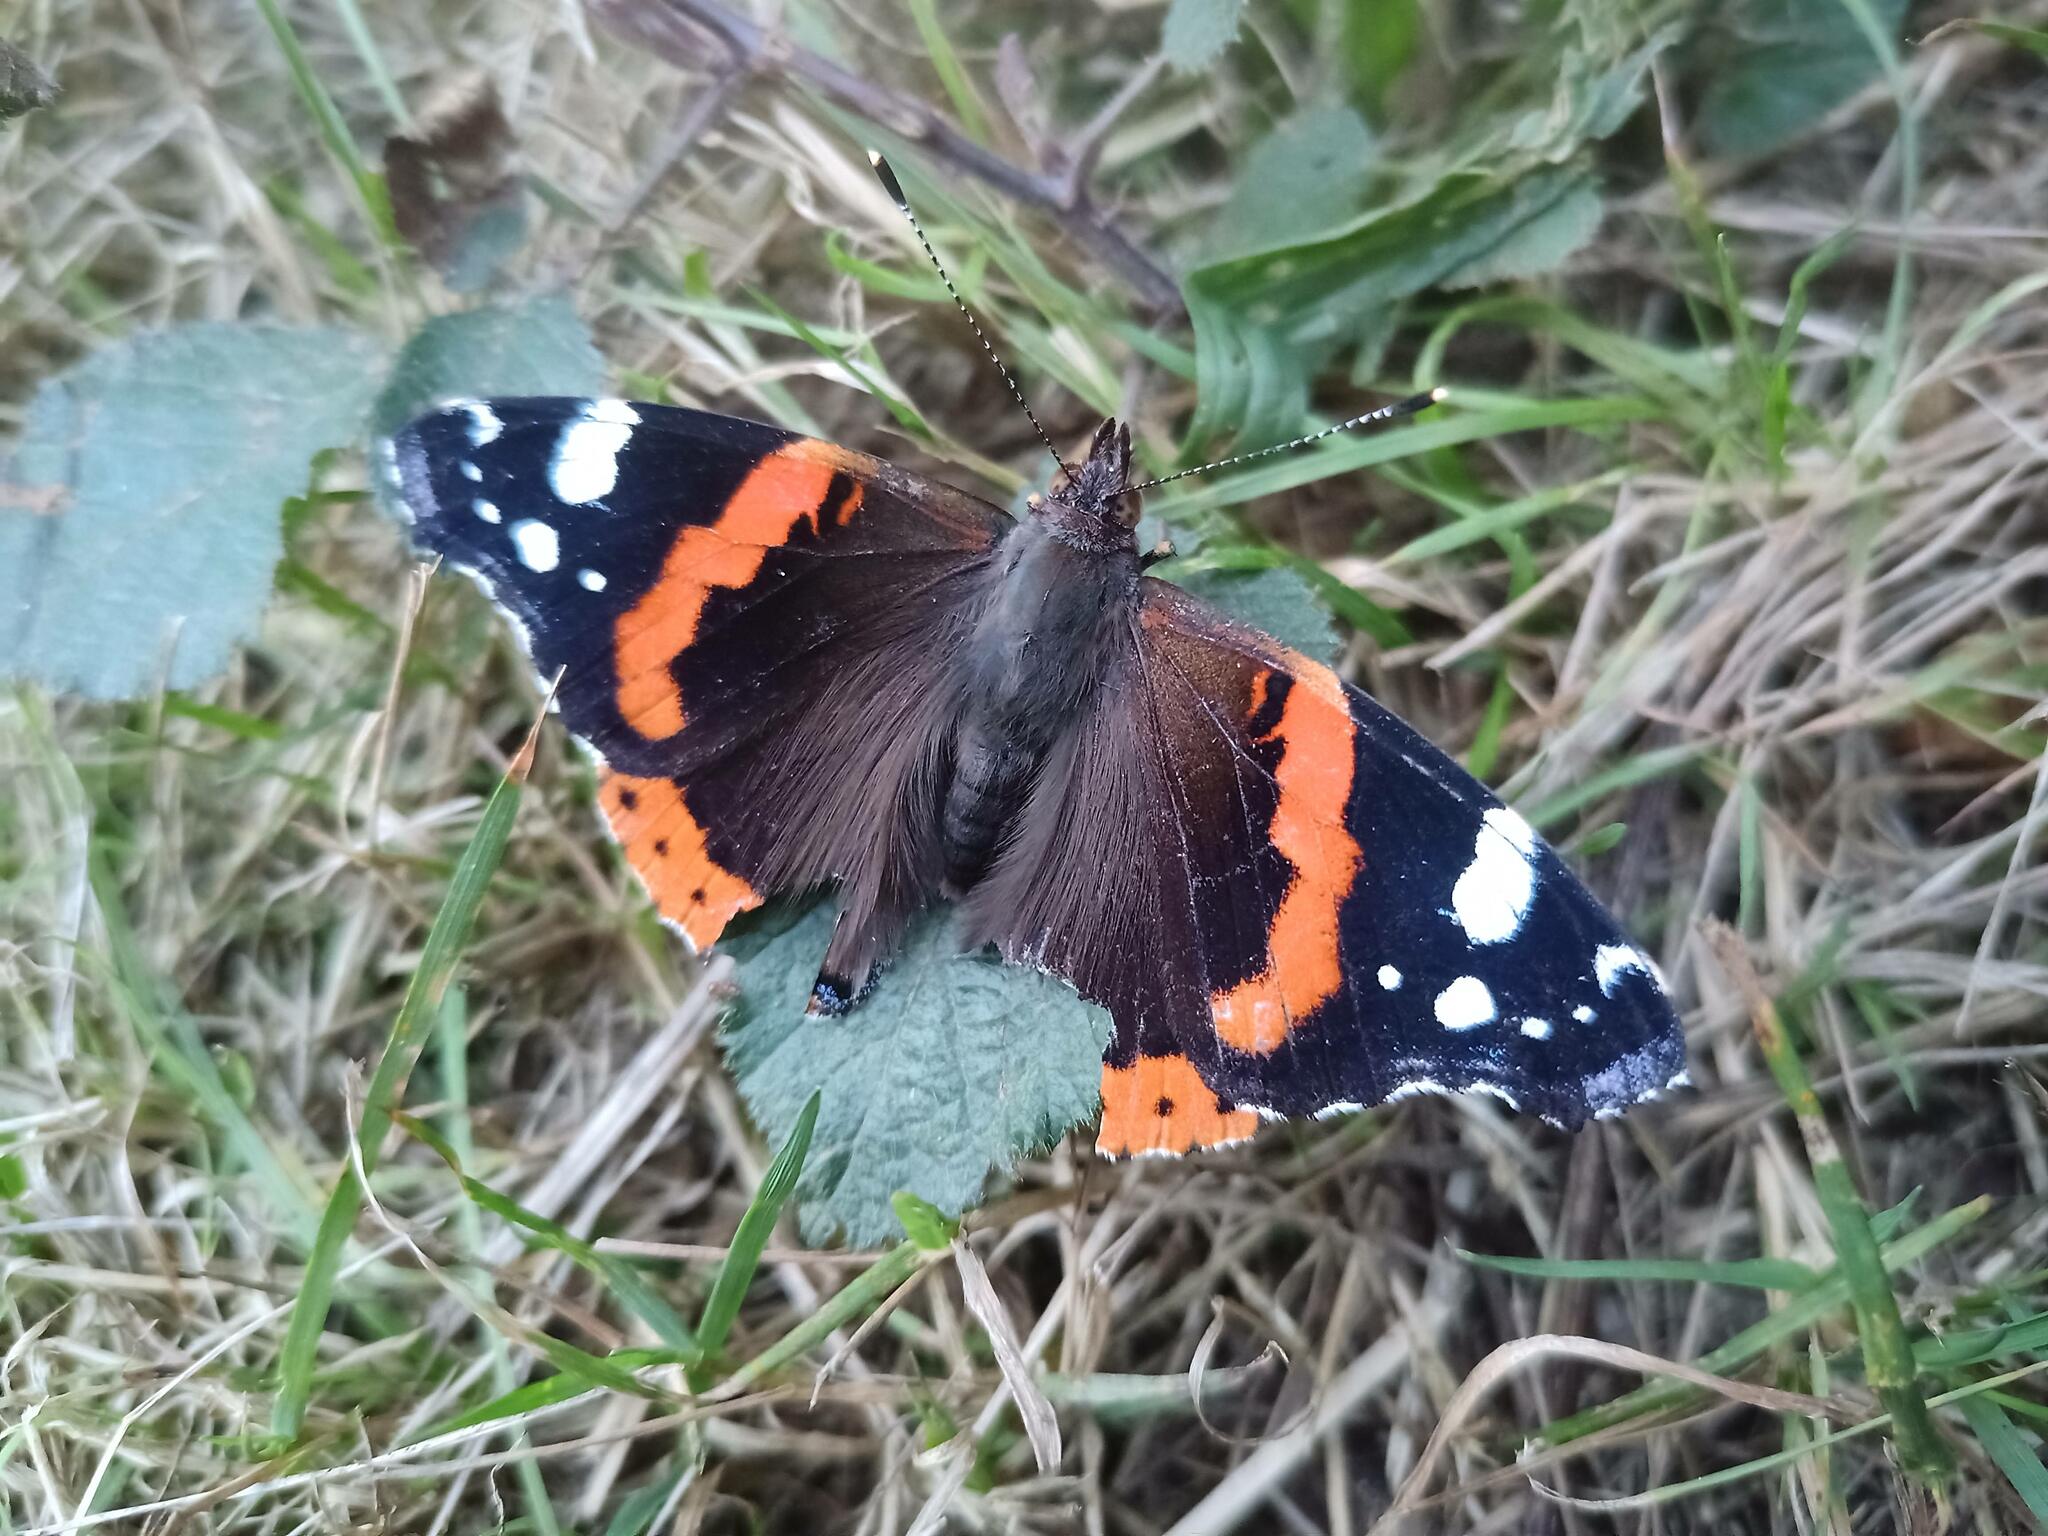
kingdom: Animalia
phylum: Arthropoda
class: Insecta
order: Lepidoptera
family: Nymphalidae
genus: Vanessa
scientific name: Vanessa atalanta
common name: Red admiral
